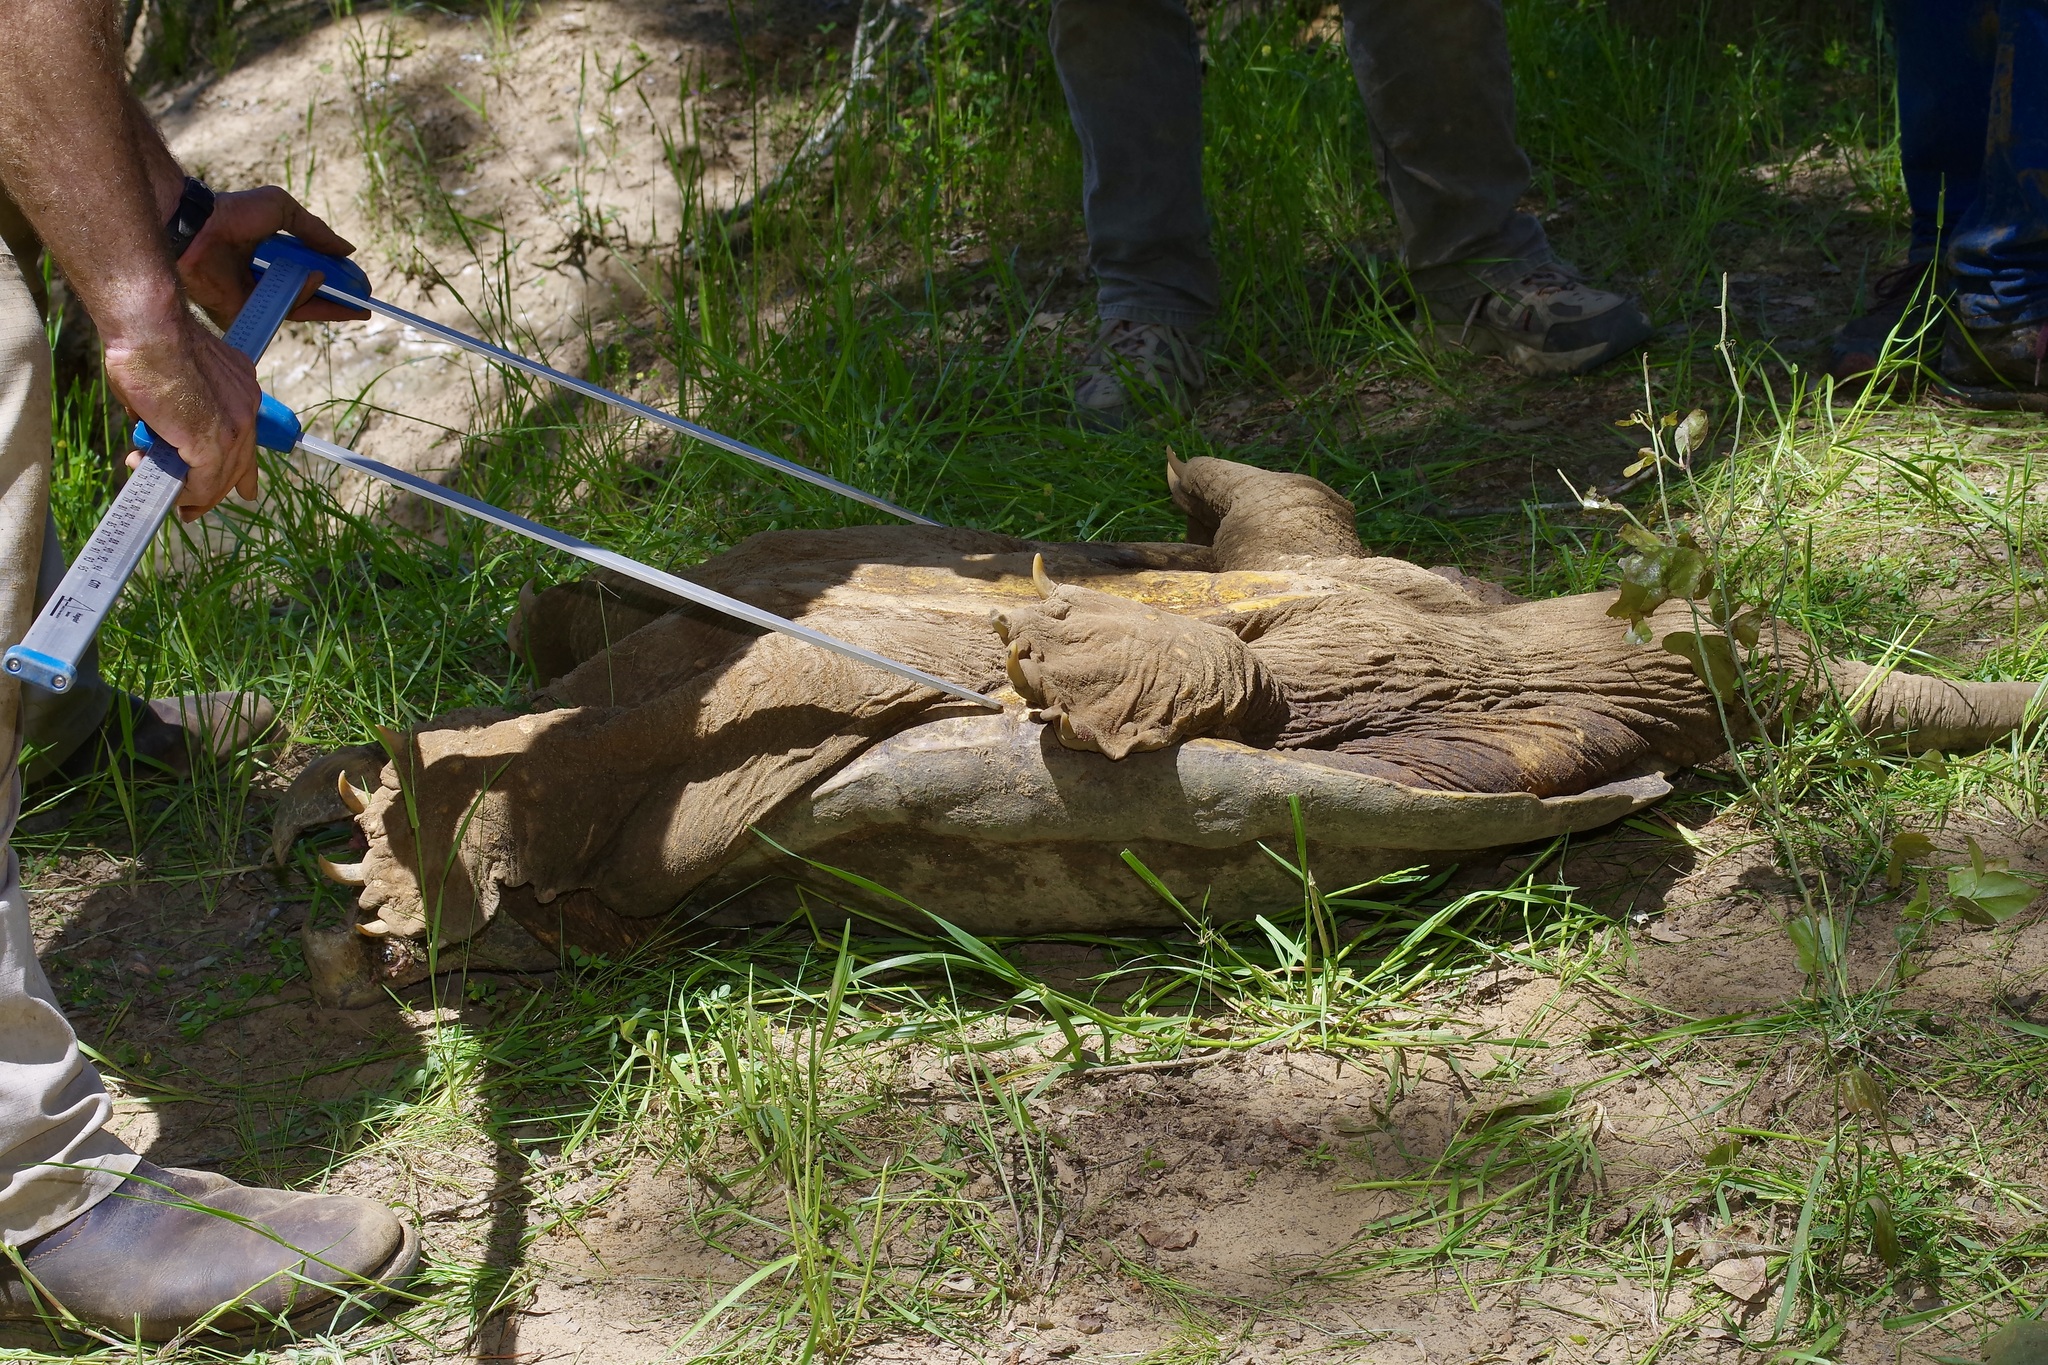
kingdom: Animalia
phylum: Chordata
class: Testudines
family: Chelydridae
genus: Macrochelys
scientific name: Macrochelys temminckii
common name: Alligator snapping turtle
